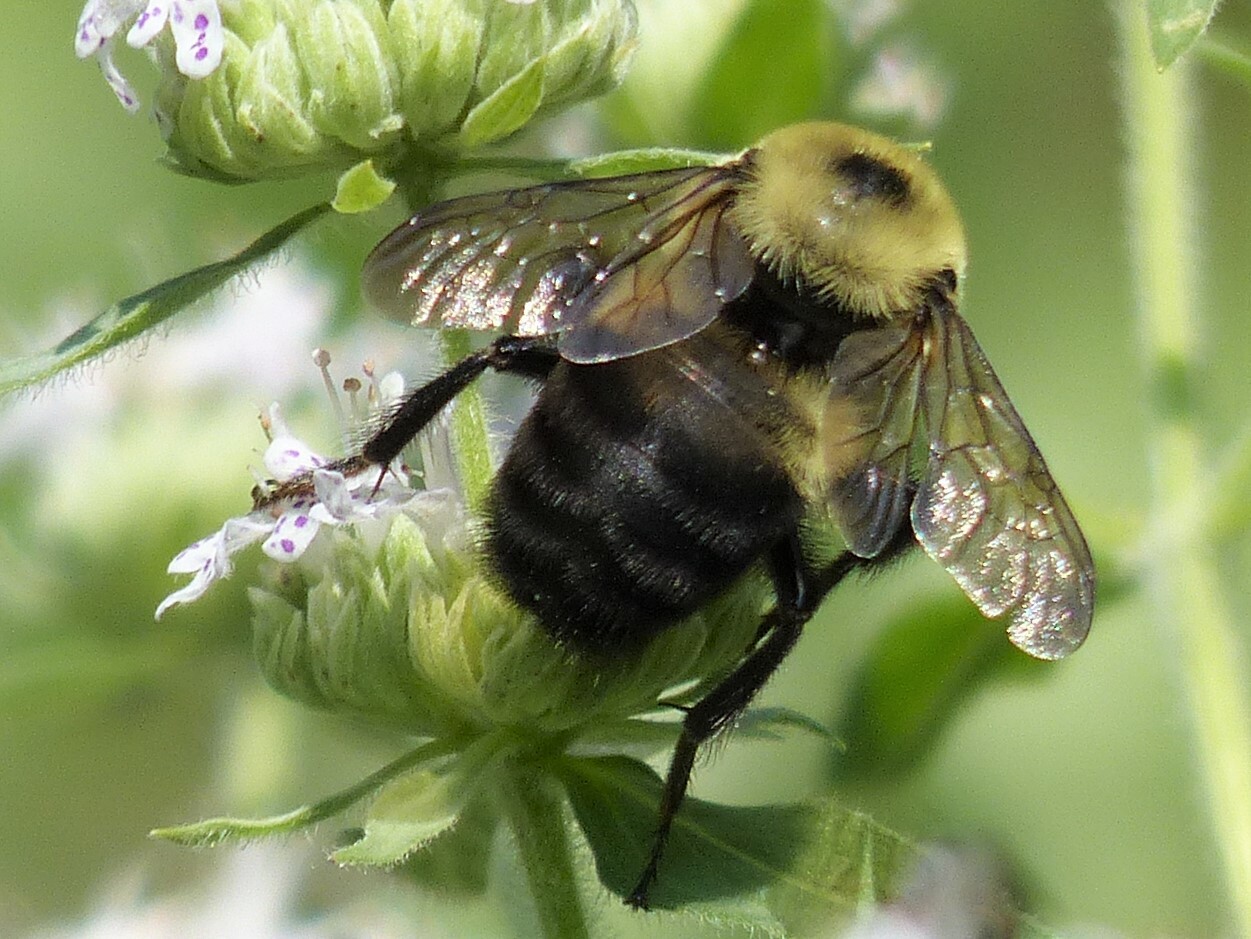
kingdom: Animalia
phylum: Arthropoda
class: Insecta
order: Hymenoptera
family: Apidae
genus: Bombus
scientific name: Bombus griseocollis
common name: Brown-belted bumble bee
